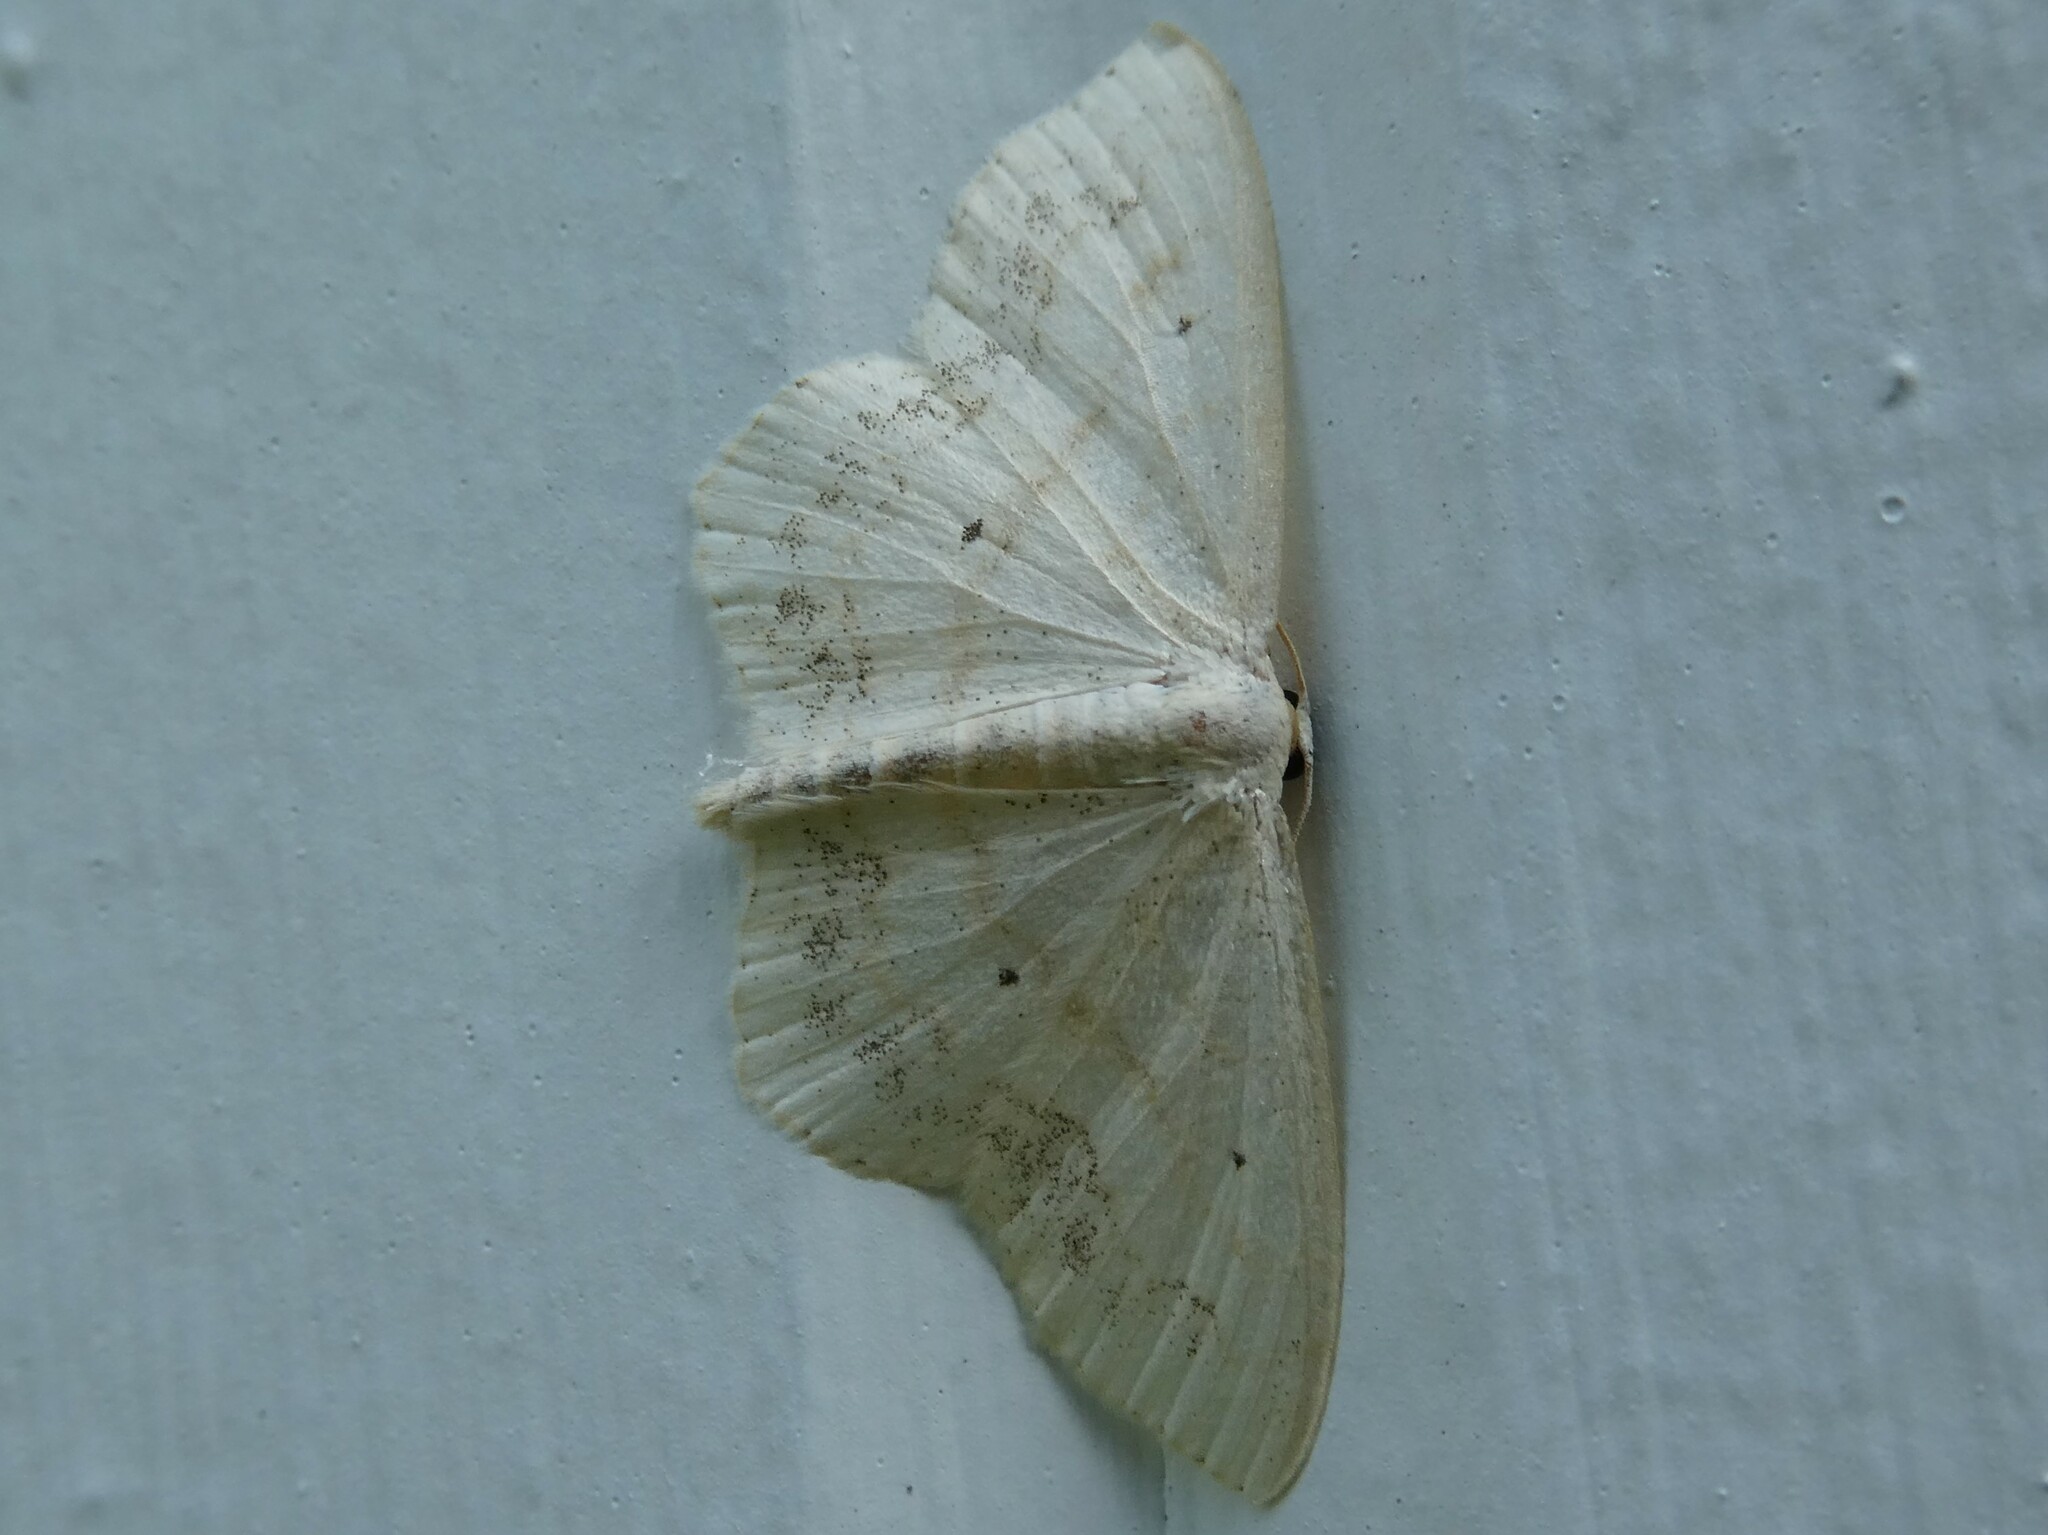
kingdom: Animalia
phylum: Arthropoda
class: Insecta
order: Lepidoptera
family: Geometridae
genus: Scopula
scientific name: Scopula limboundata
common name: Large lace border
